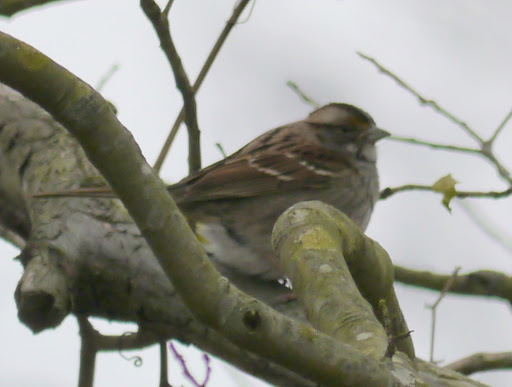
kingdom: Animalia
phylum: Chordata
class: Aves
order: Passeriformes
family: Passerellidae
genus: Zonotrichia
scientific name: Zonotrichia albicollis
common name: White-throated sparrow
